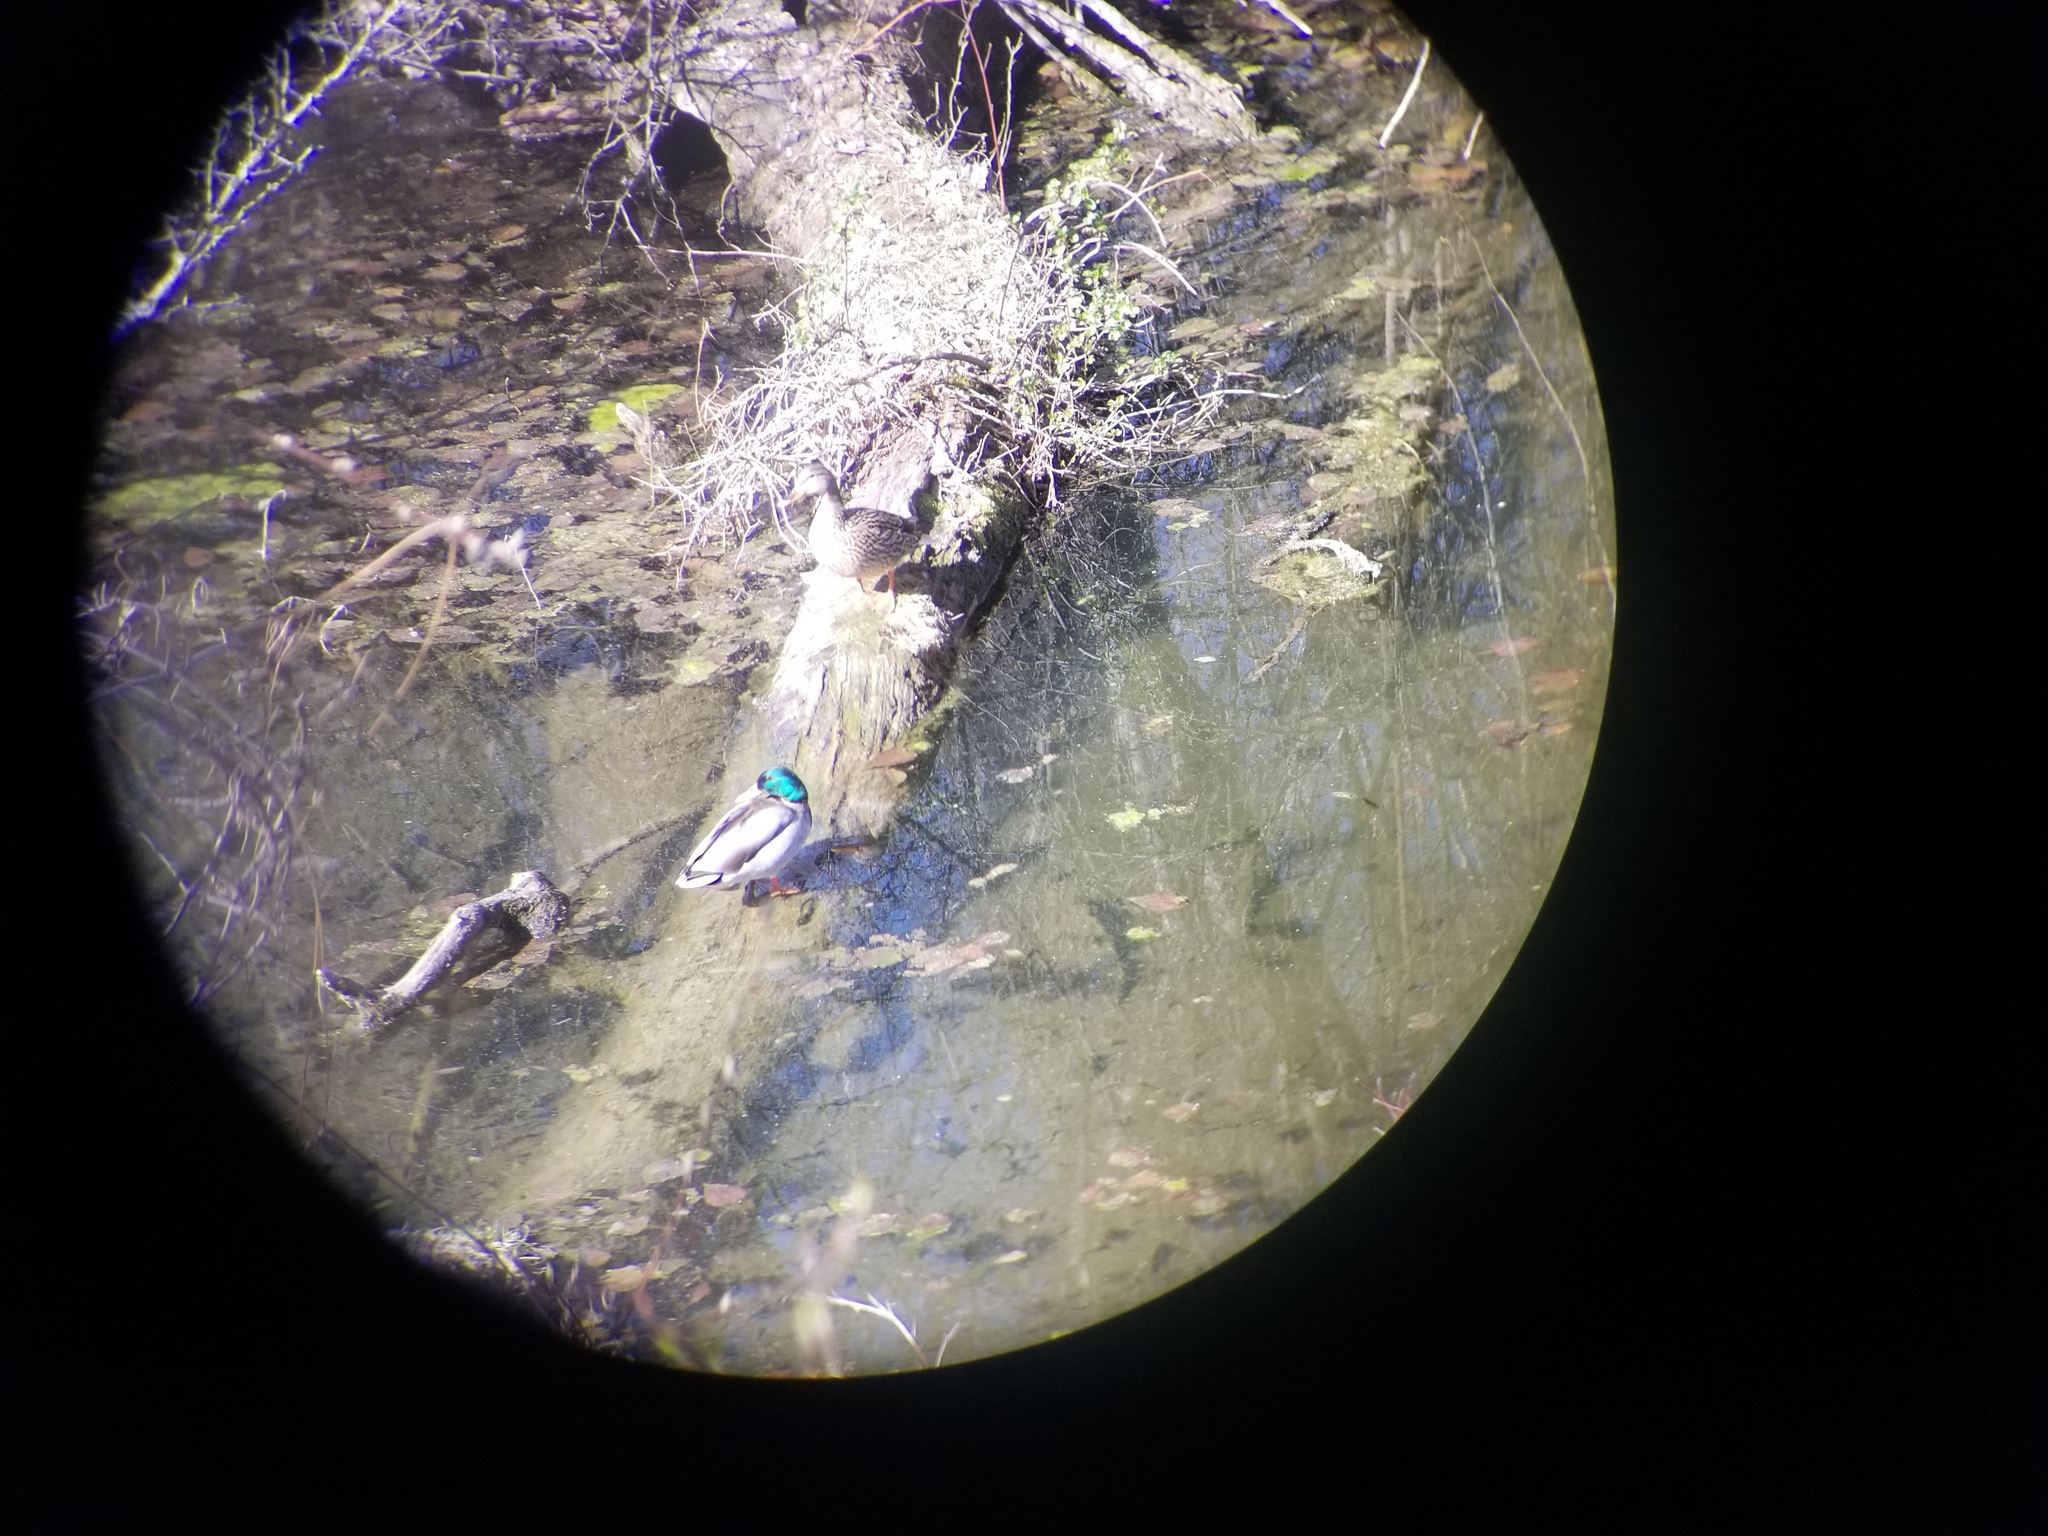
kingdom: Animalia
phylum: Chordata
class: Aves
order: Anseriformes
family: Anatidae
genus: Anas
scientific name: Anas platyrhynchos
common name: Mallard
